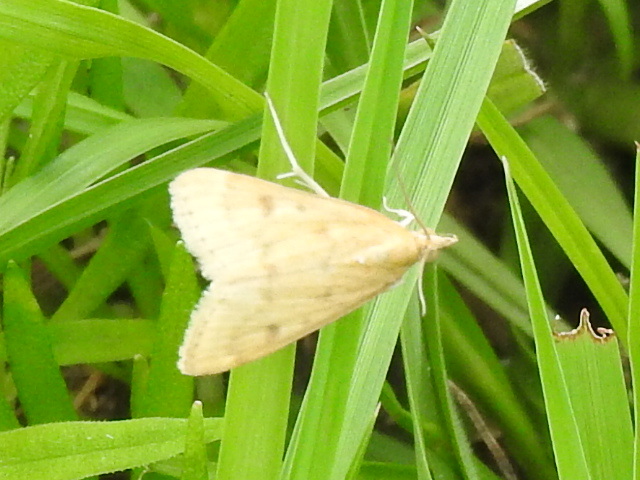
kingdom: Animalia
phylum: Arthropoda
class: Insecta
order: Lepidoptera
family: Crambidae
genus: Udea
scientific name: Udea rubigalis
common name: Celery leaftier moth
